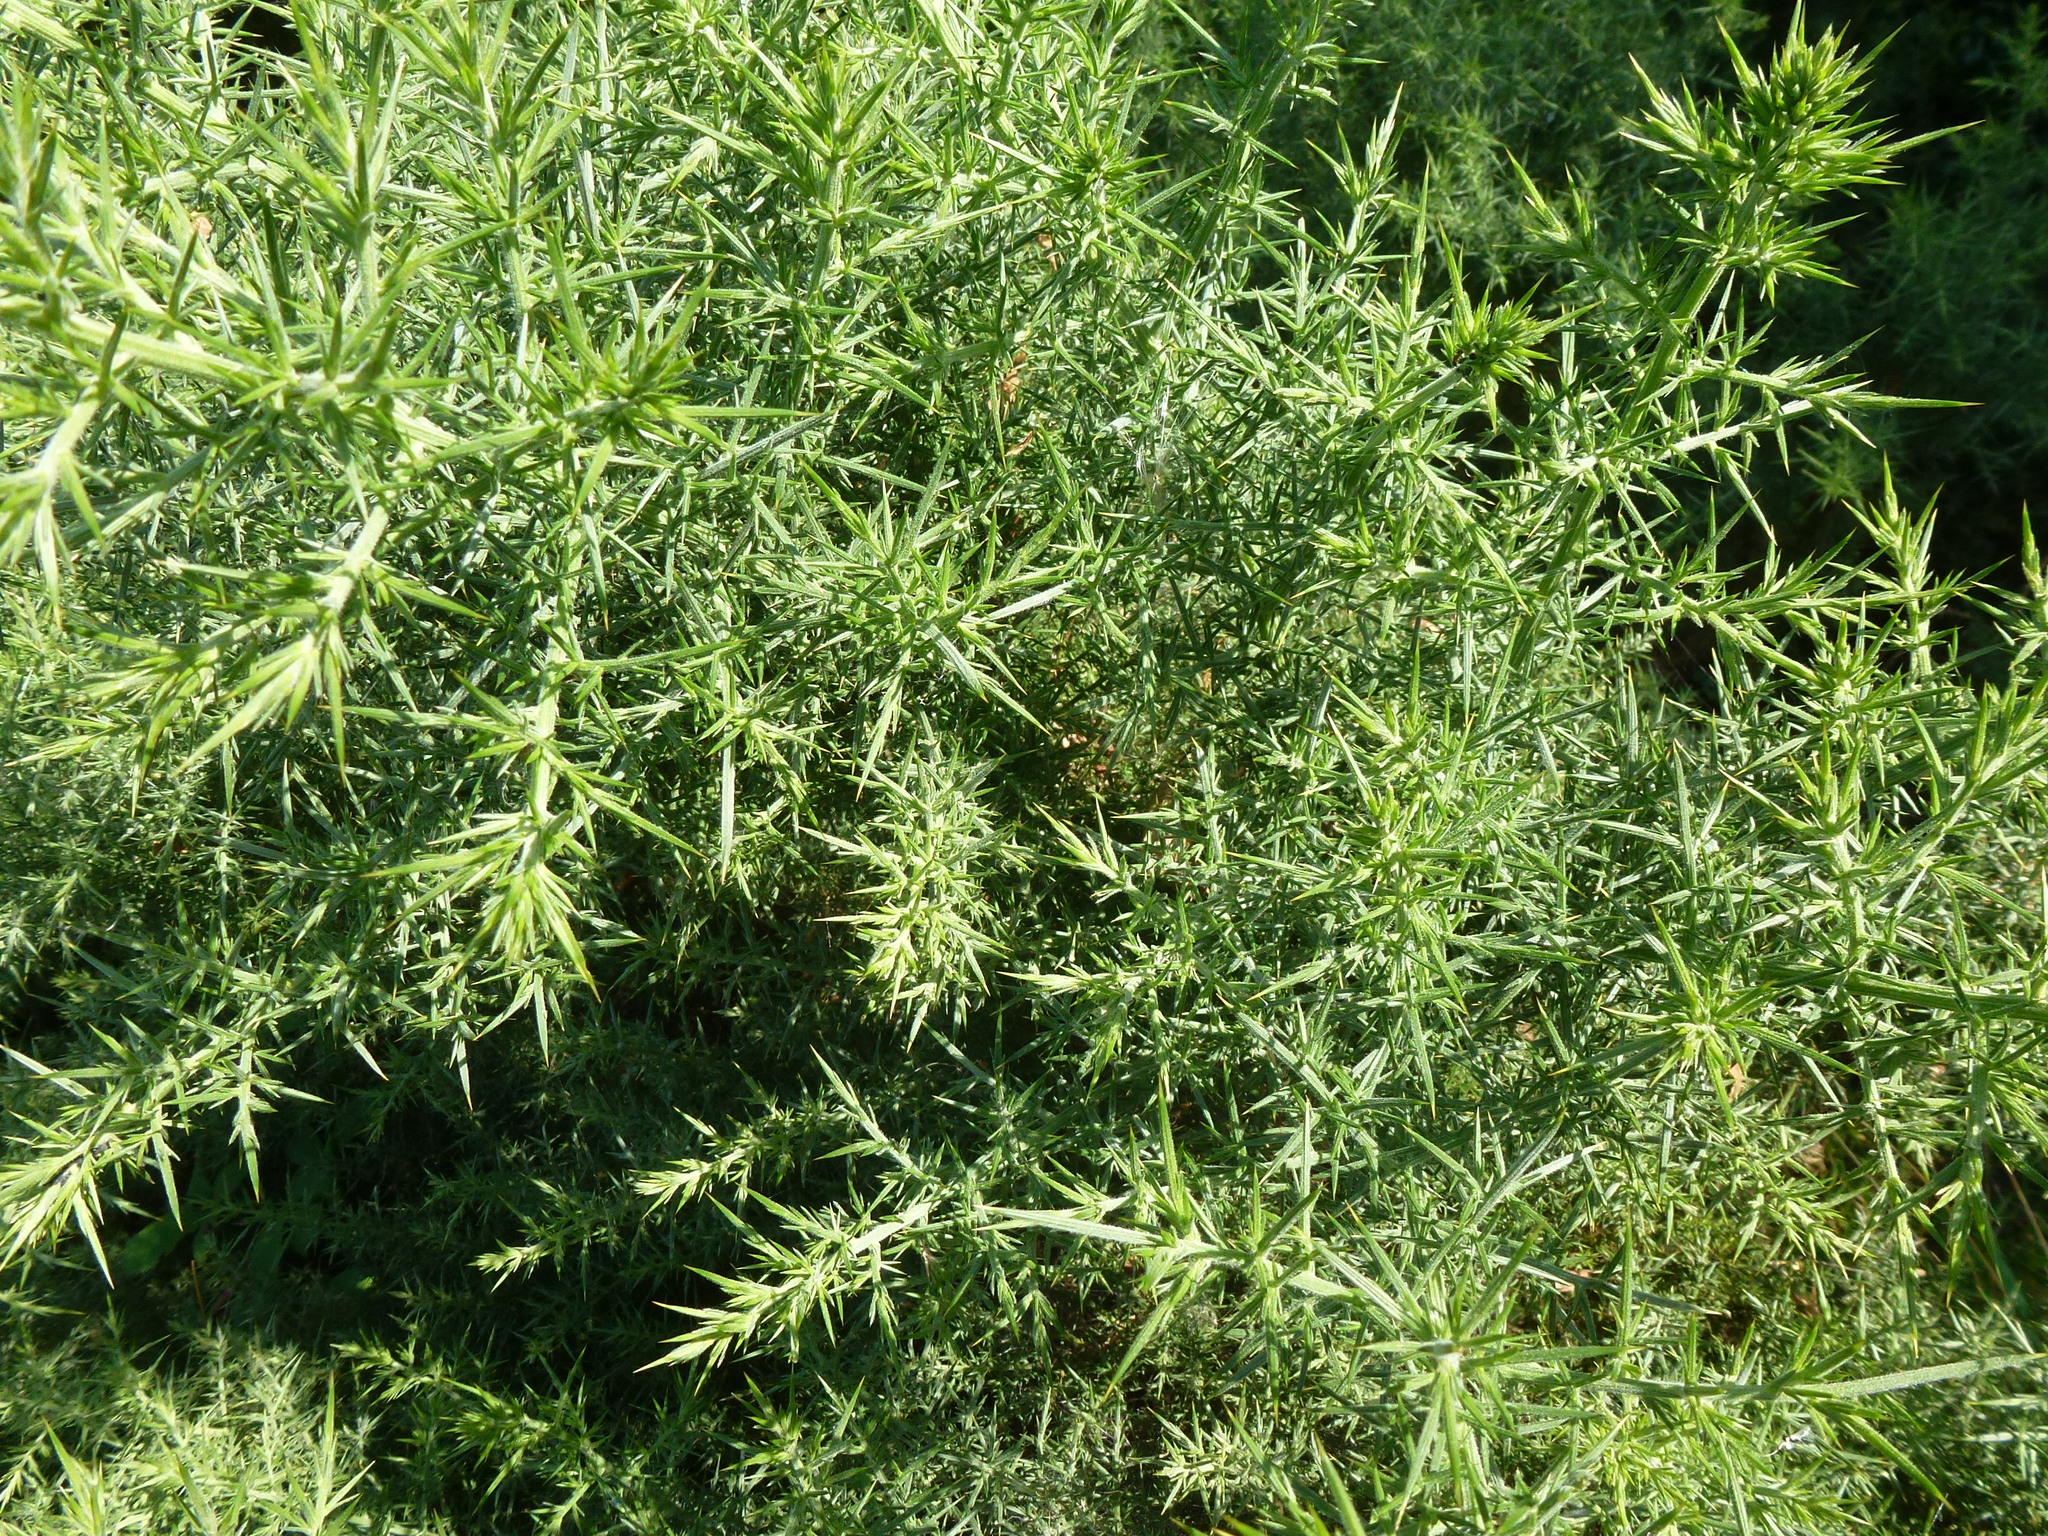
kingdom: Plantae
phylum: Tracheophyta
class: Magnoliopsida
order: Fabales
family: Fabaceae
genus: Ulex
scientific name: Ulex europaeus
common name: Common gorse
